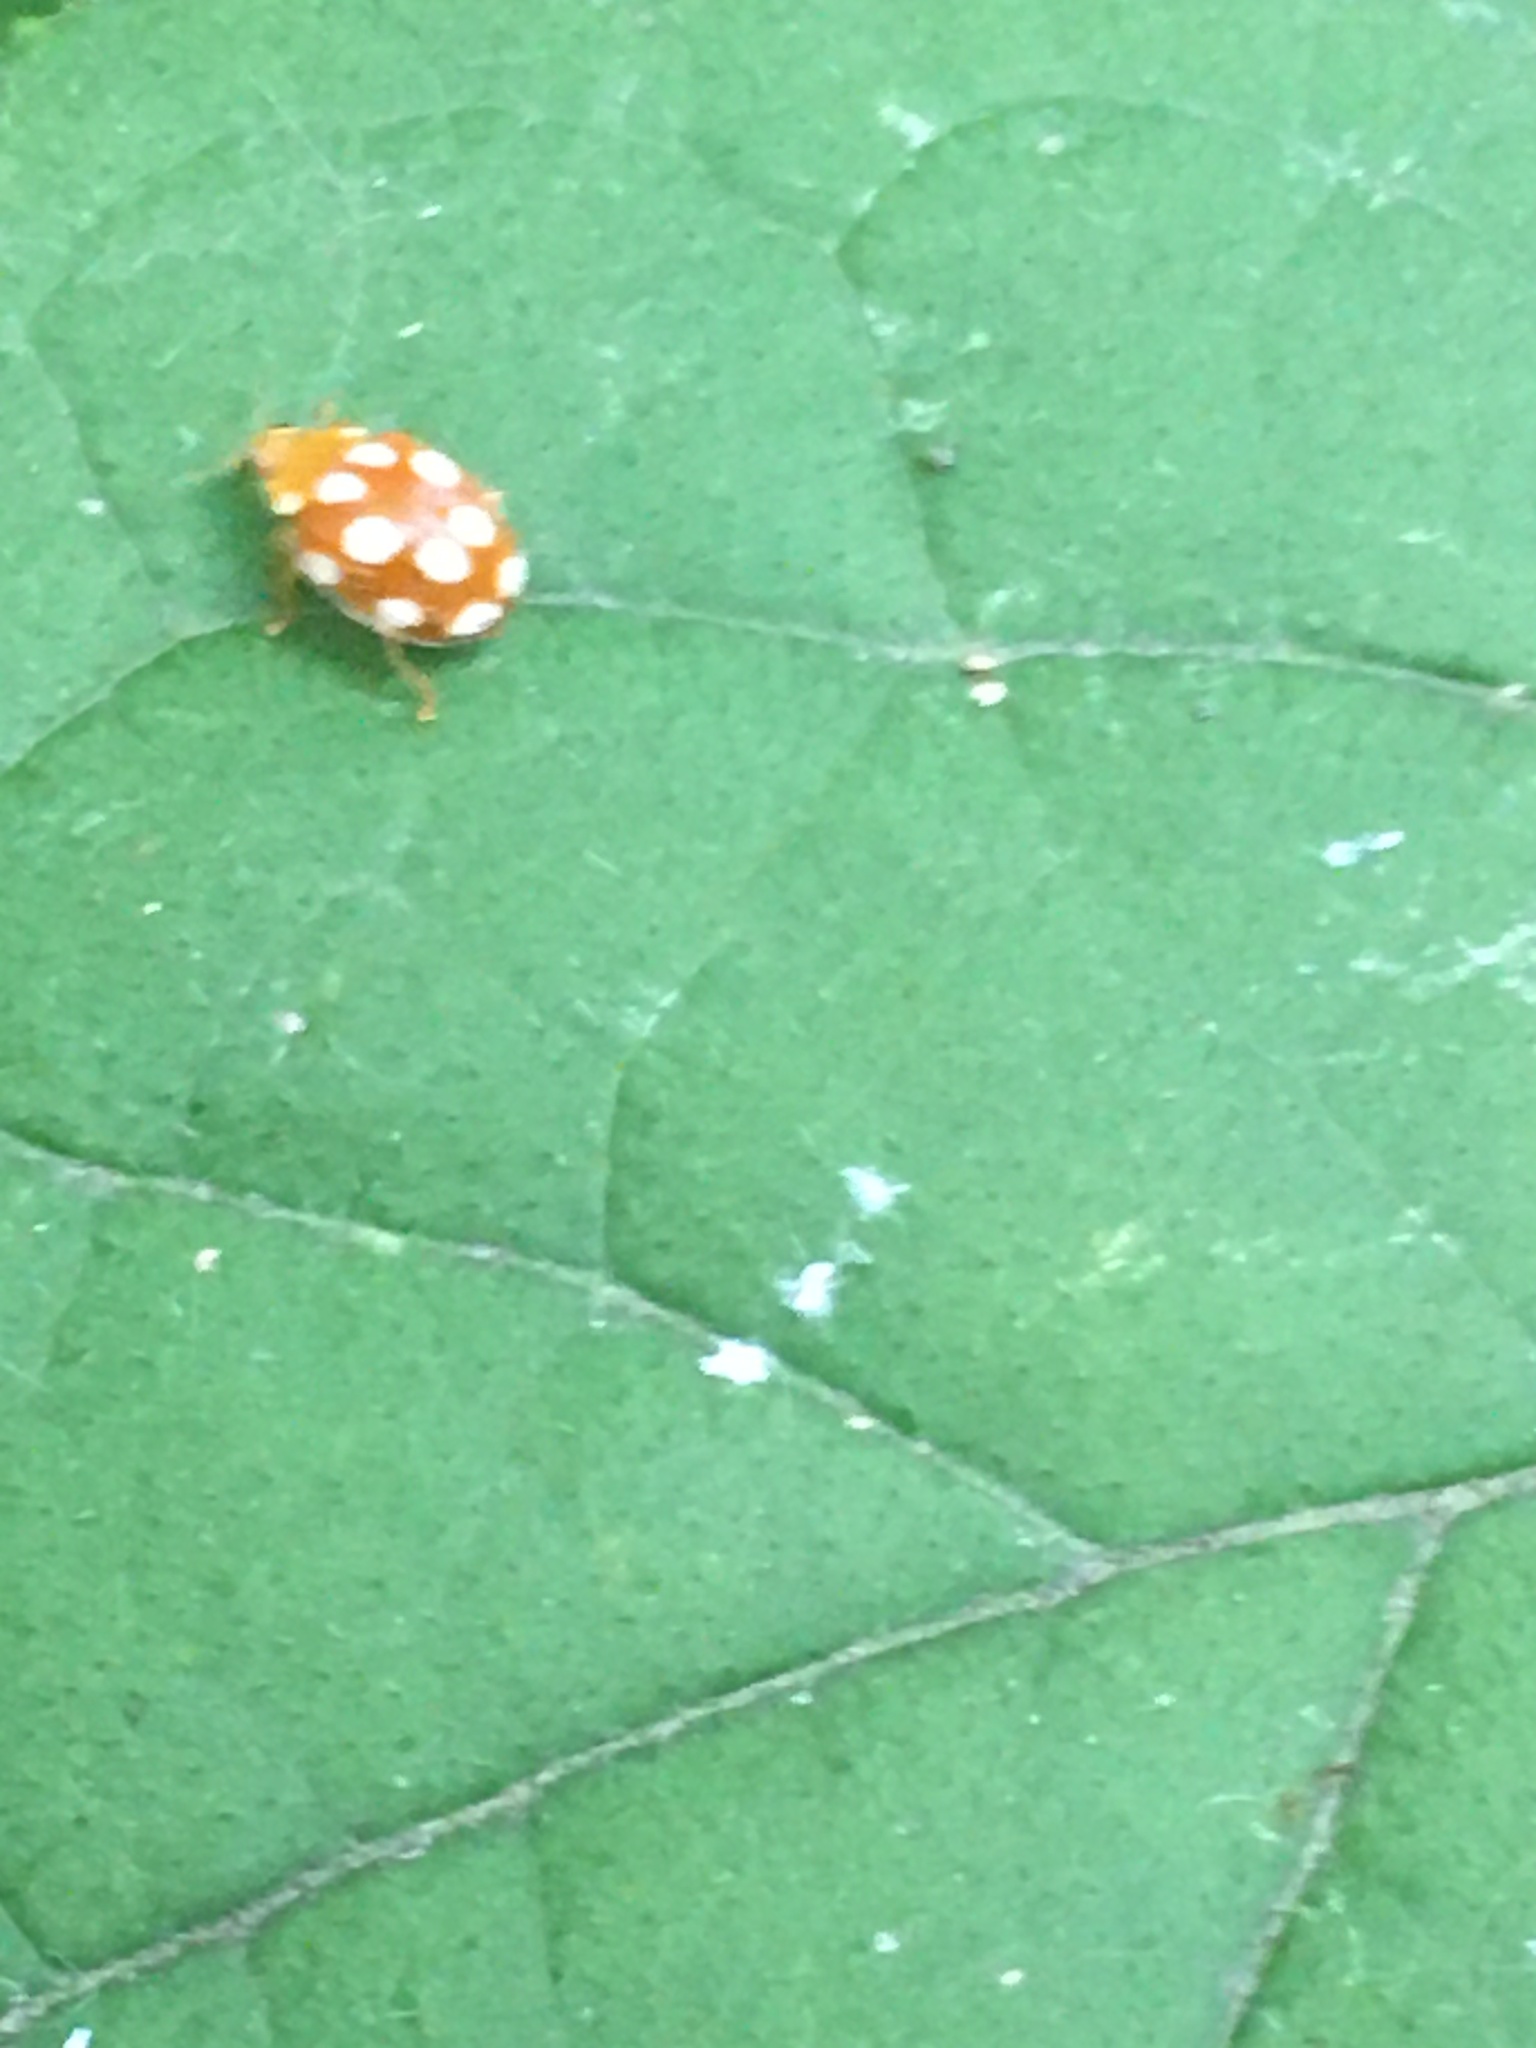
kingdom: Animalia
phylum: Arthropoda
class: Insecta
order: Coleoptera
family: Coccinellidae
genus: Vibidia
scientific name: Vibidia duodecimguttata
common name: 12-spot ladybird
